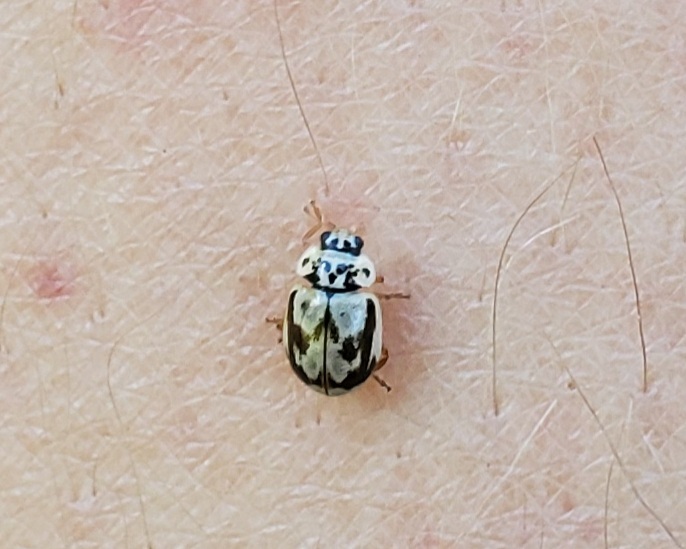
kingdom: Animalia
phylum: Arthropoda
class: Insecta
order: Coleoptera
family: Coccinellidae
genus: Mulsantina
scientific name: Mulsantina picta
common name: Painted ladybird
